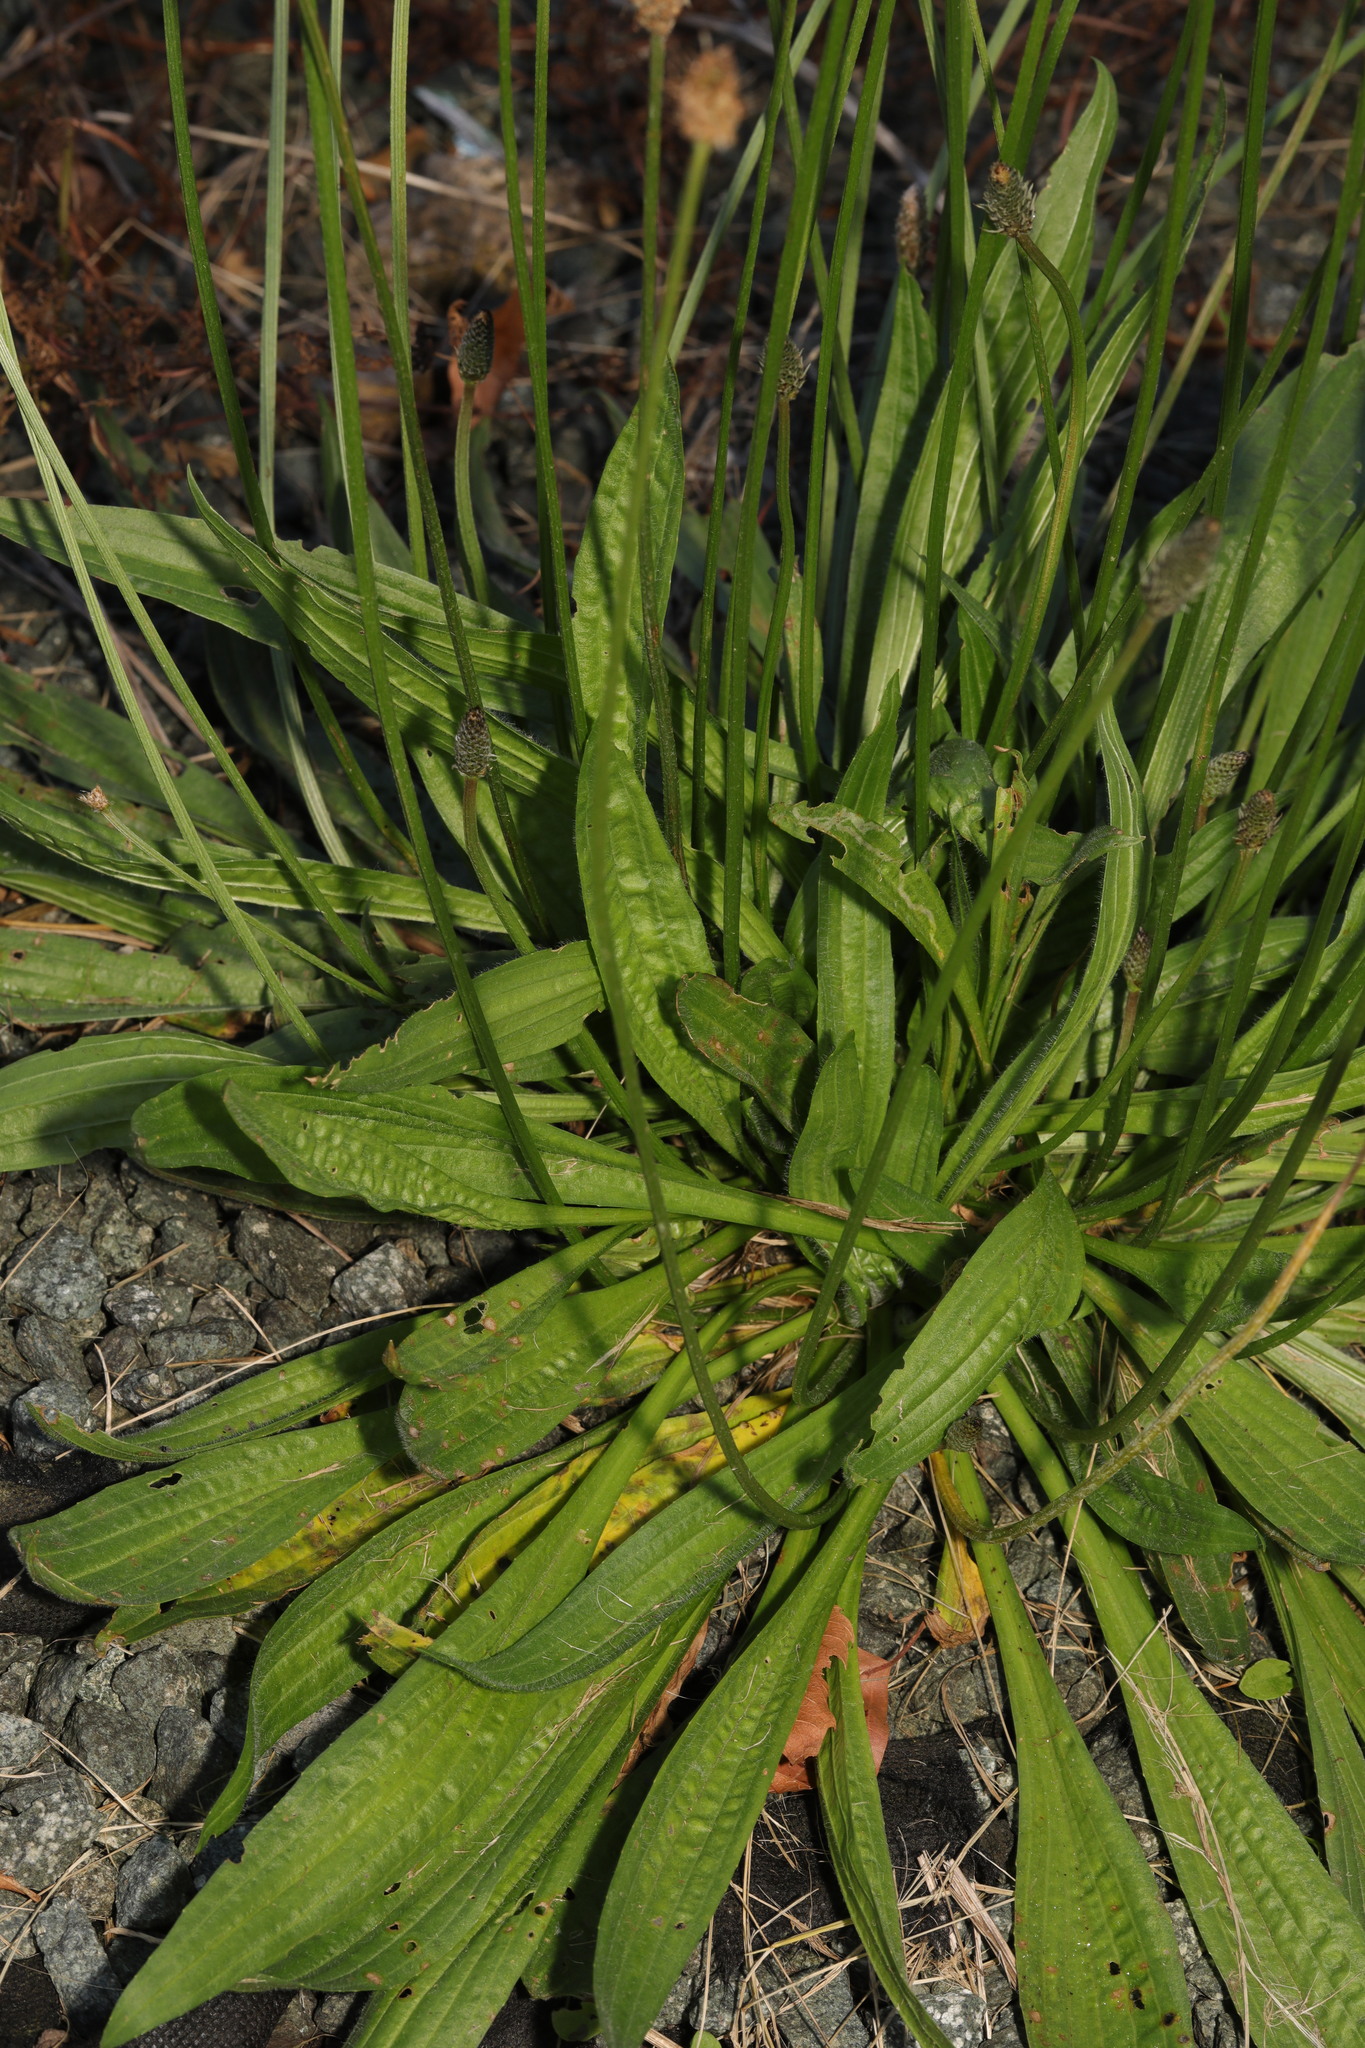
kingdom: Plantae
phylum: Tracheophyta
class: Magnoliopsida
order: Lamiales
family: Plantaginaceae
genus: Plantago
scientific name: Plantago lanceolata
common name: Ribwort plantain
